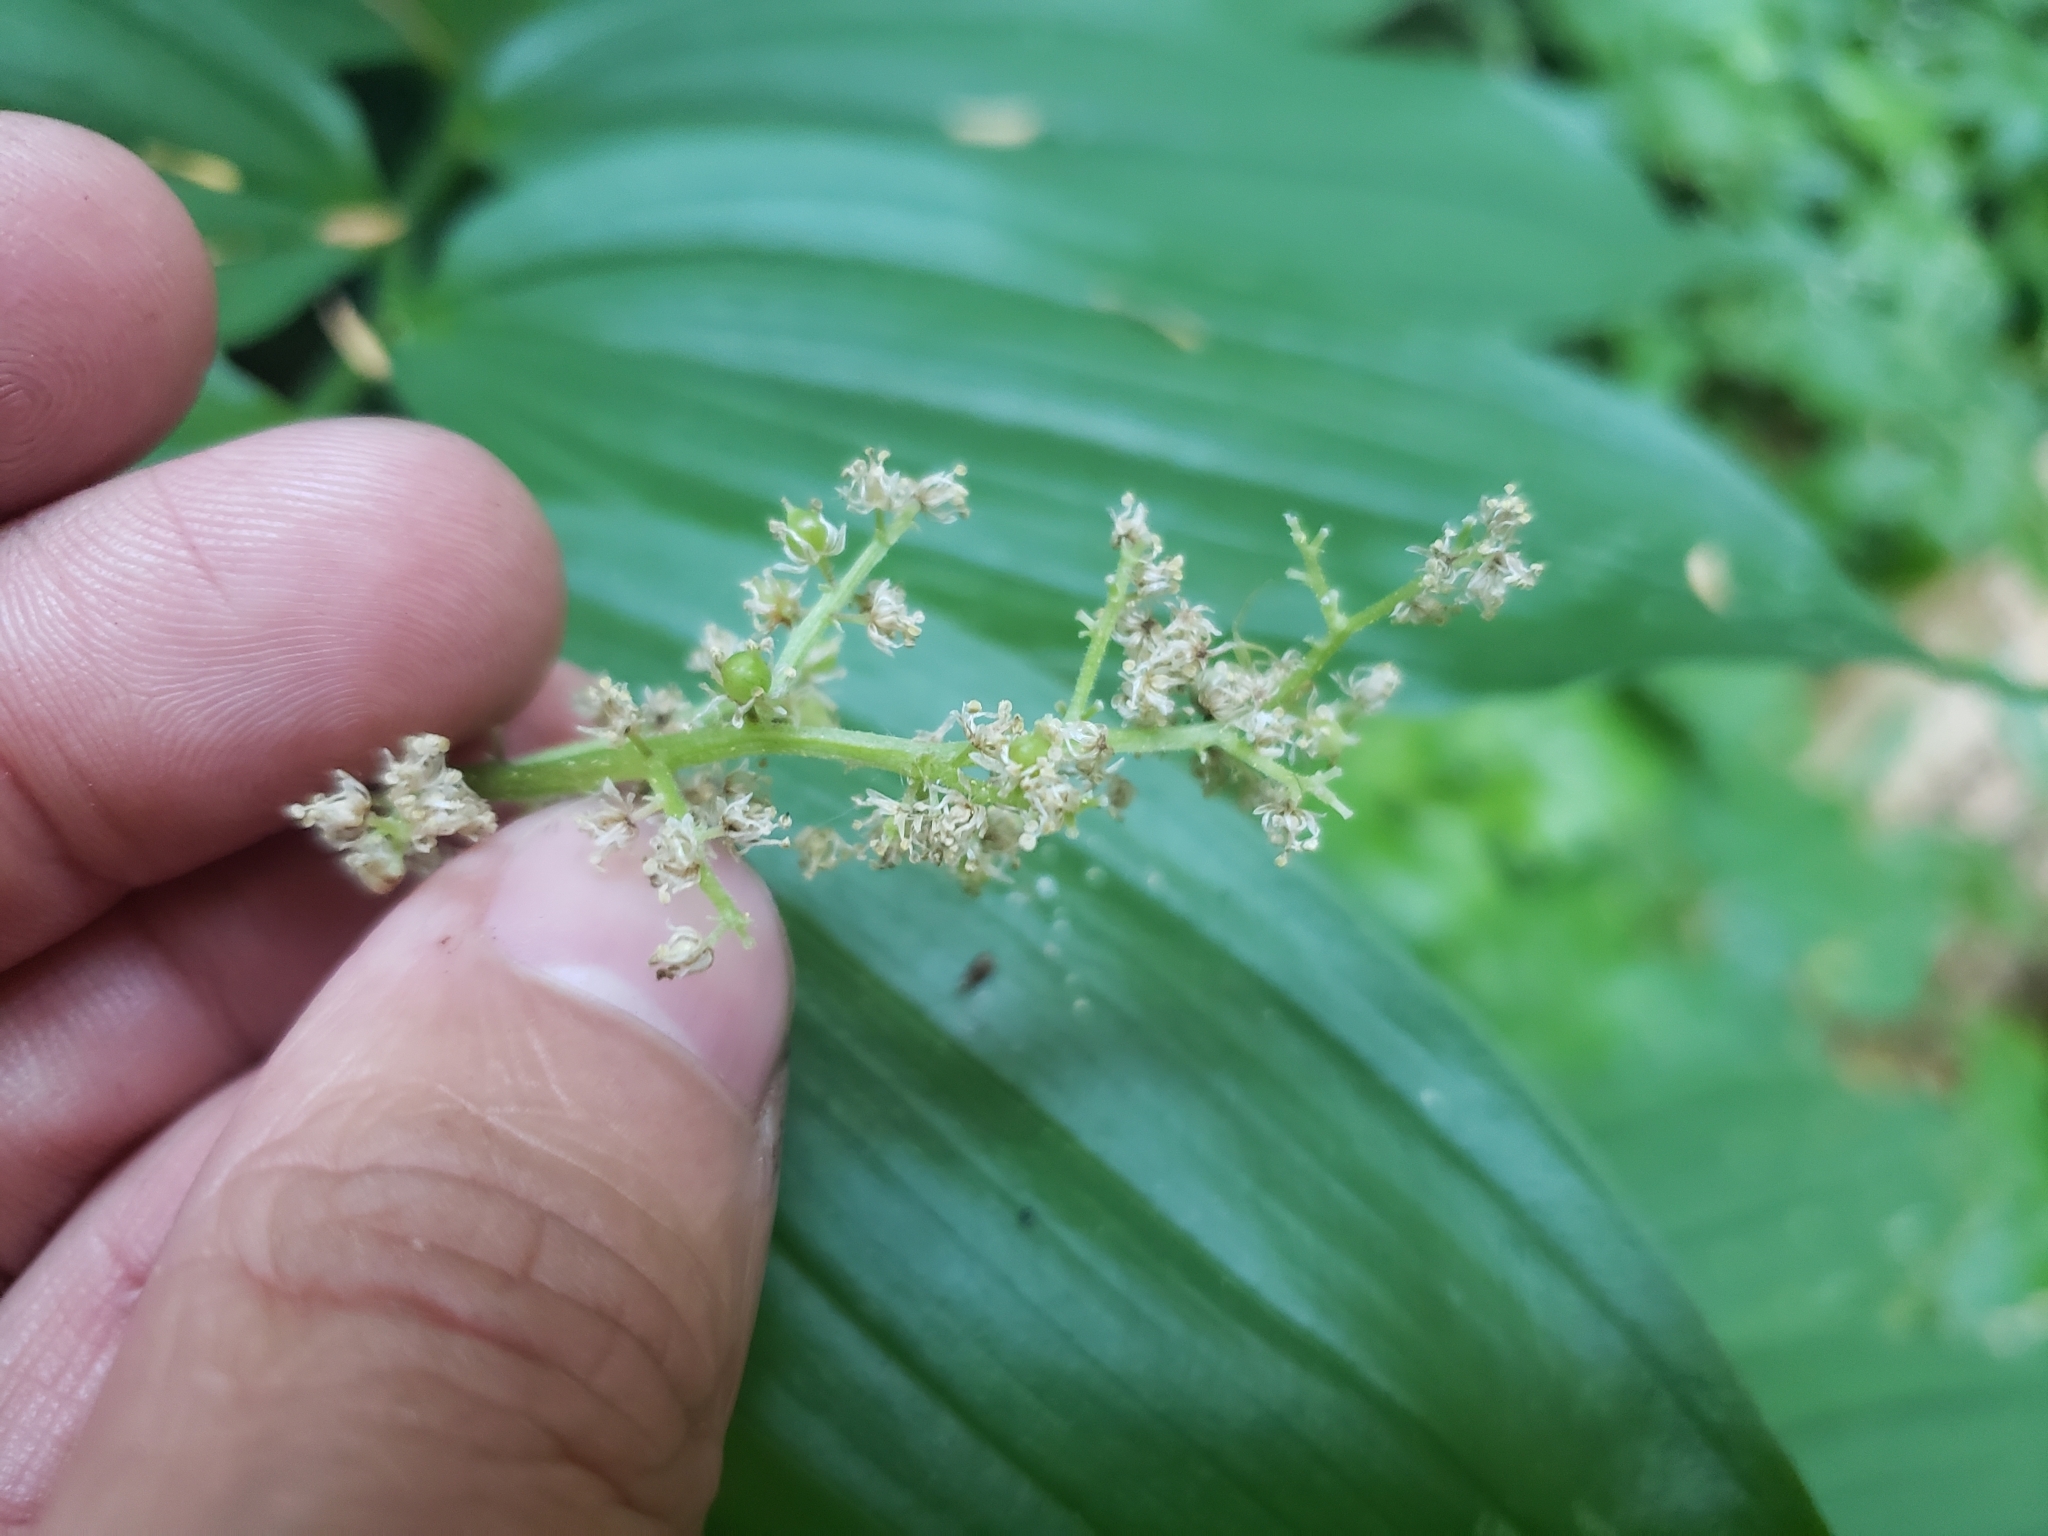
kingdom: Plantae
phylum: Tracheophyta
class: Liliopsida
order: Asparagales
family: Asparagaceae
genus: Maianthemum
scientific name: Maianthemum racemosum
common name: False spikenard
